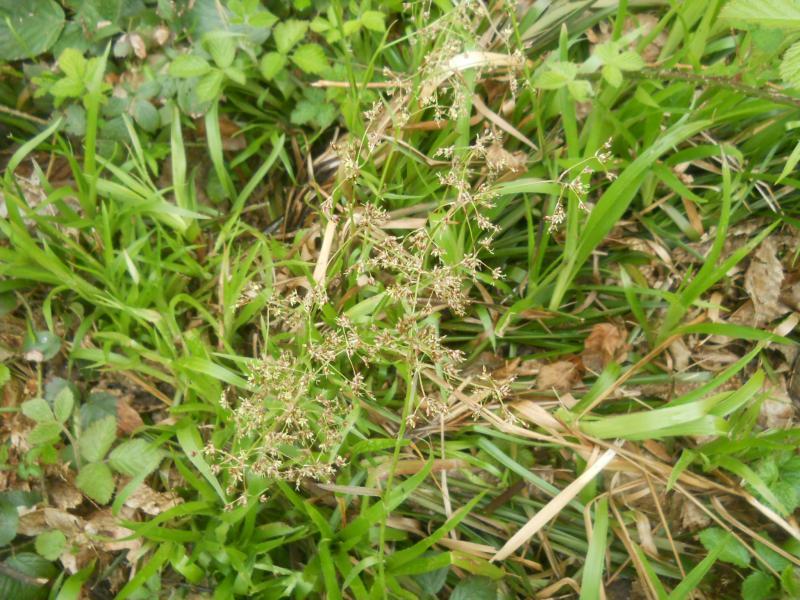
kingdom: Plantae
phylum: Tracheophyta
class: Liliopsida
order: Poales
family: Juncaceae
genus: Luzula
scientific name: Luzula sylvatica
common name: Great wood-rush
